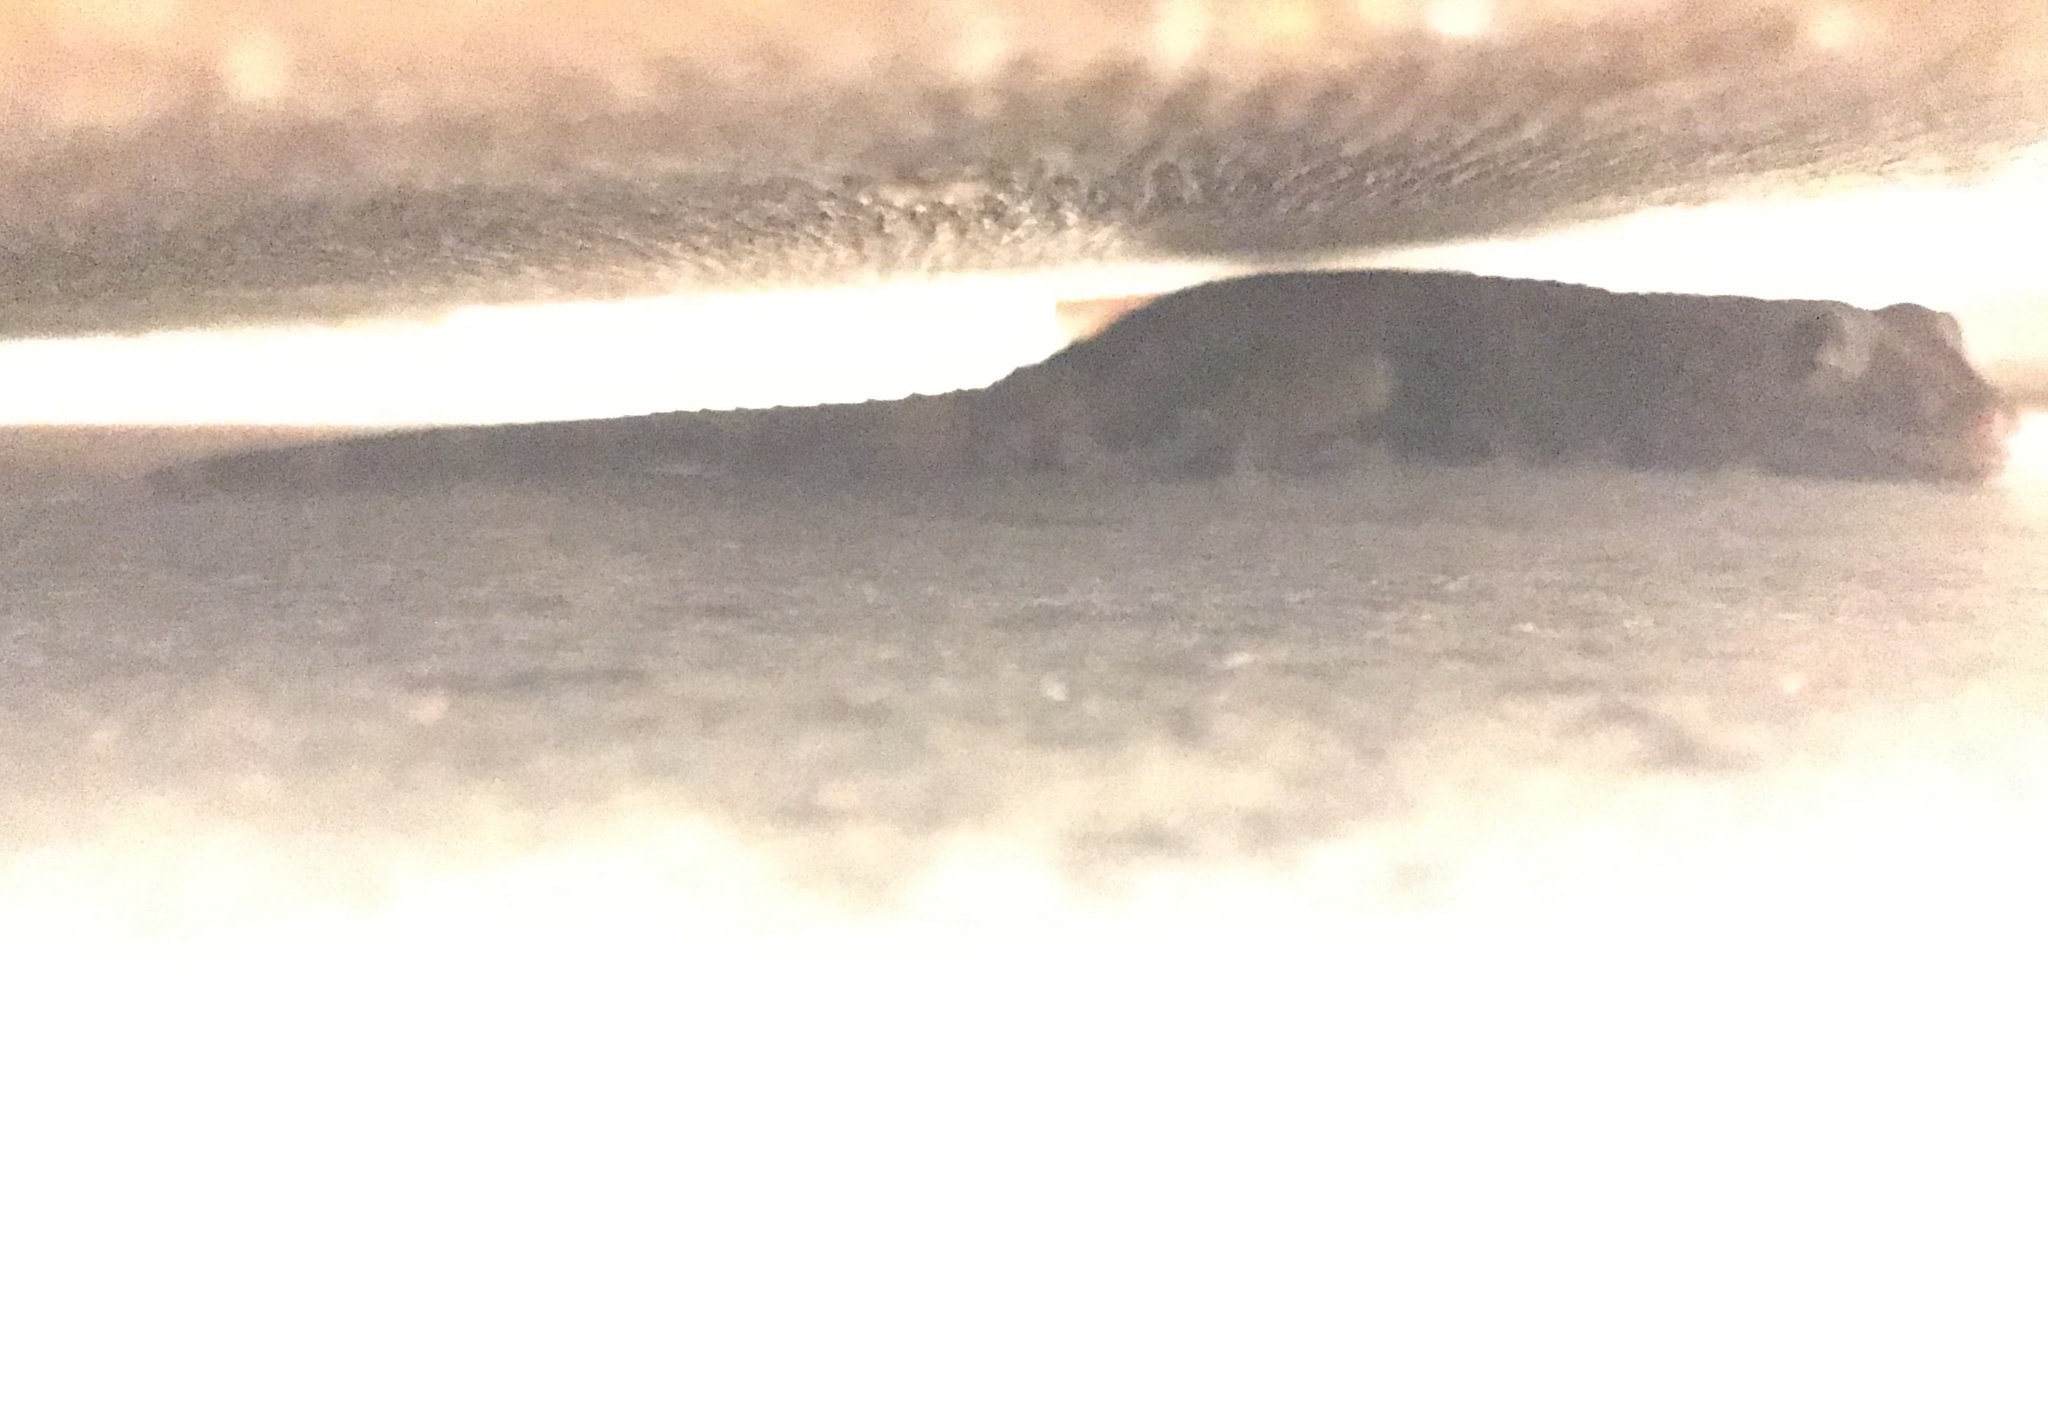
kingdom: Animalia
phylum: Chordata
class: Squamata
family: Gekkonidae
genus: Gekko
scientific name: Gekko gecko
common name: Tokay gecko
